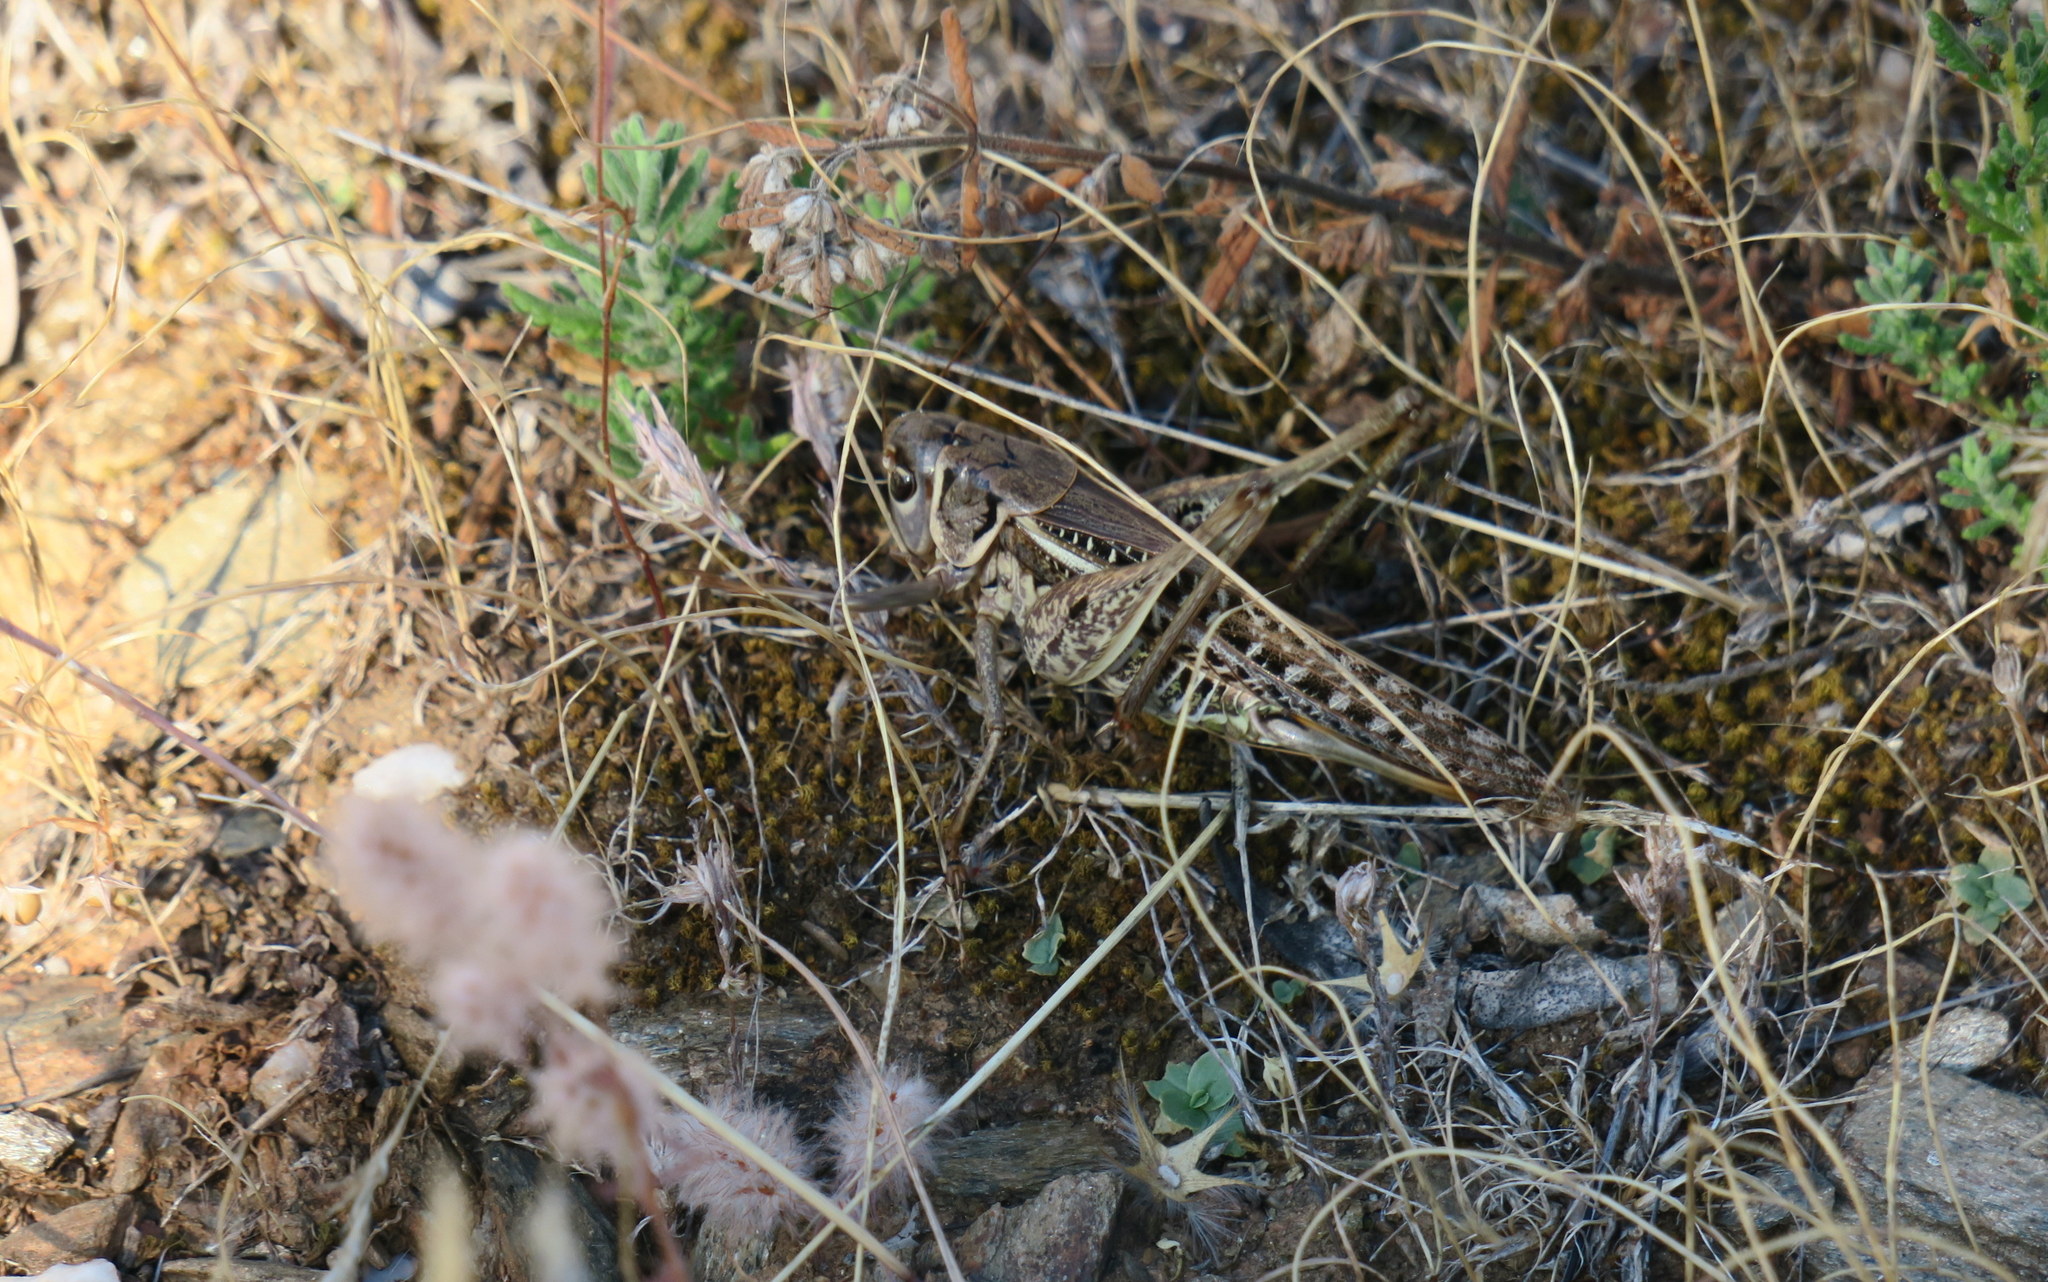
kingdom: Animalia
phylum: Arthropoda
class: Insecta
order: Orthoptera
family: Tettigoniidae
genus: Decticus
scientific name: Decticus albifrons
